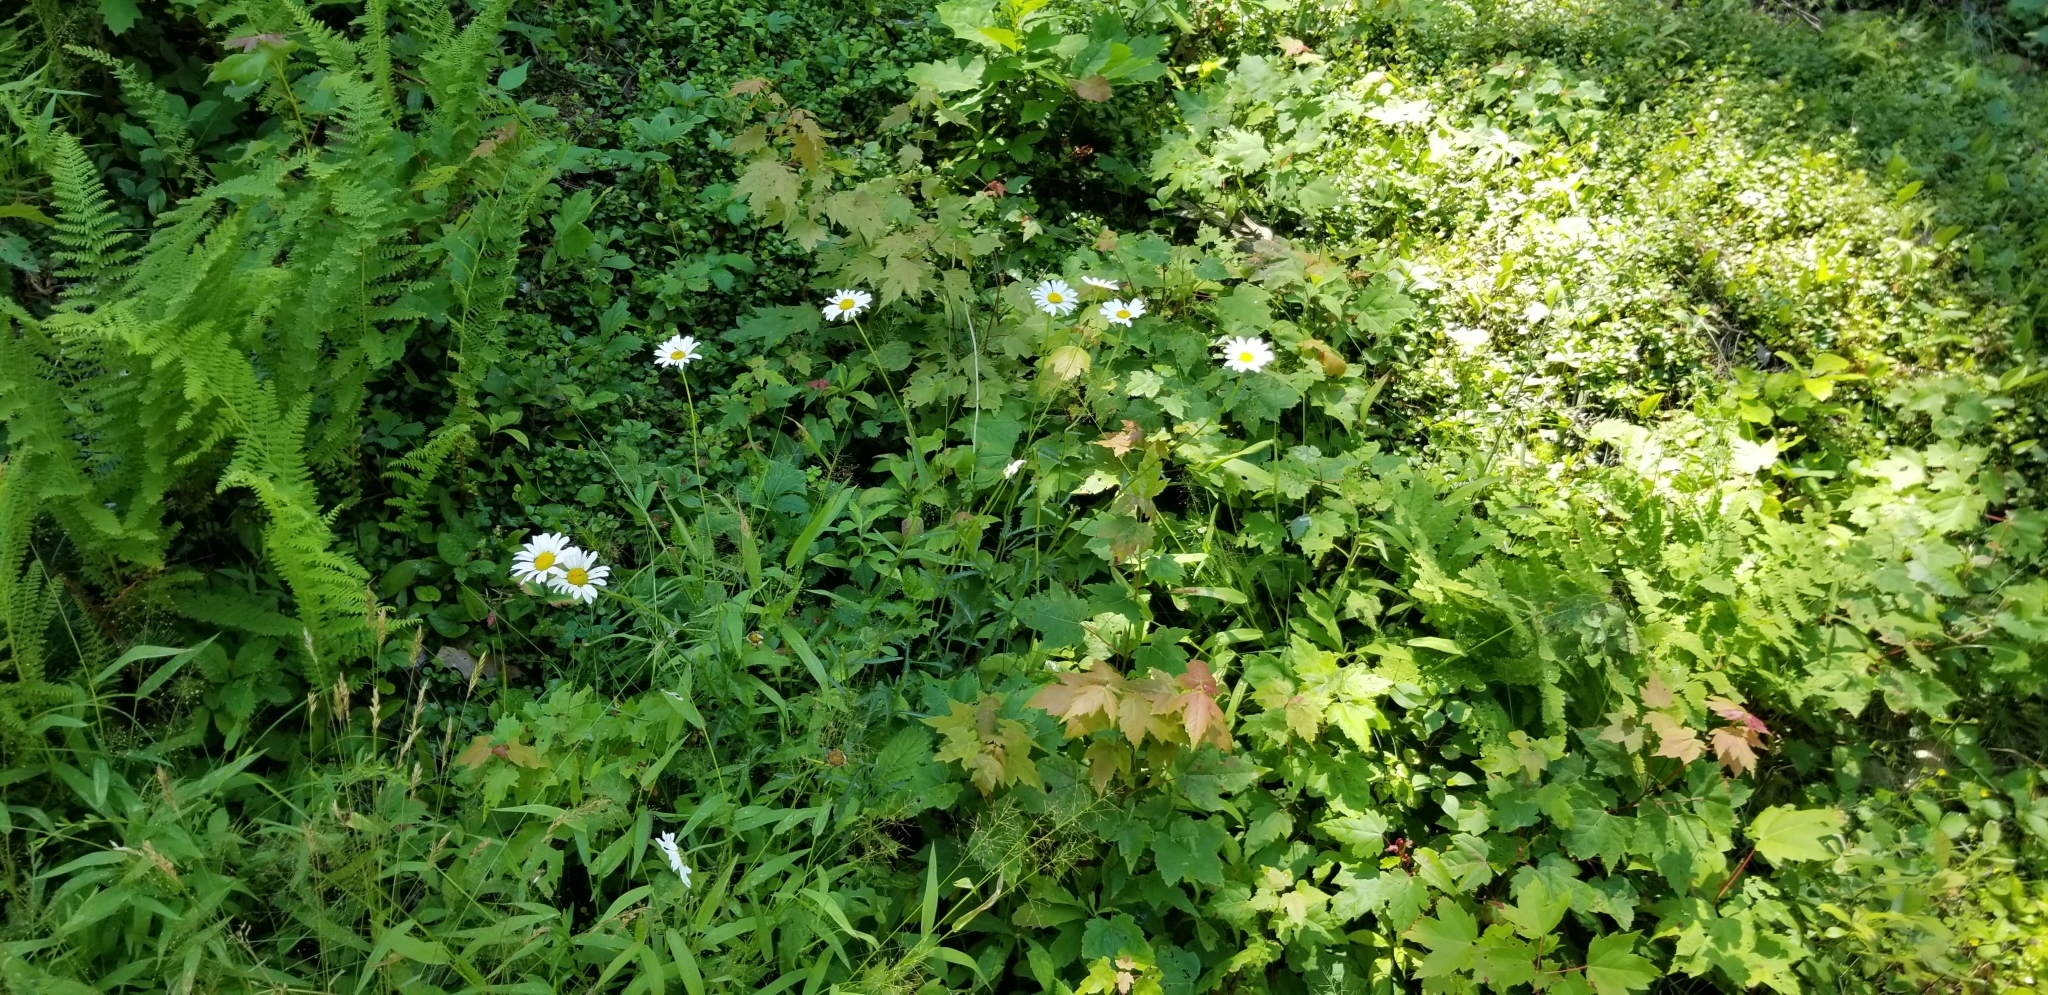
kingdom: Plantae
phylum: Tracheophyta
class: Magnoliopsida
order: Asterales
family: Asteraceae
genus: Leucanthemum
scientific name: Leucanthemum vulgare
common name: Oxeye daisy
